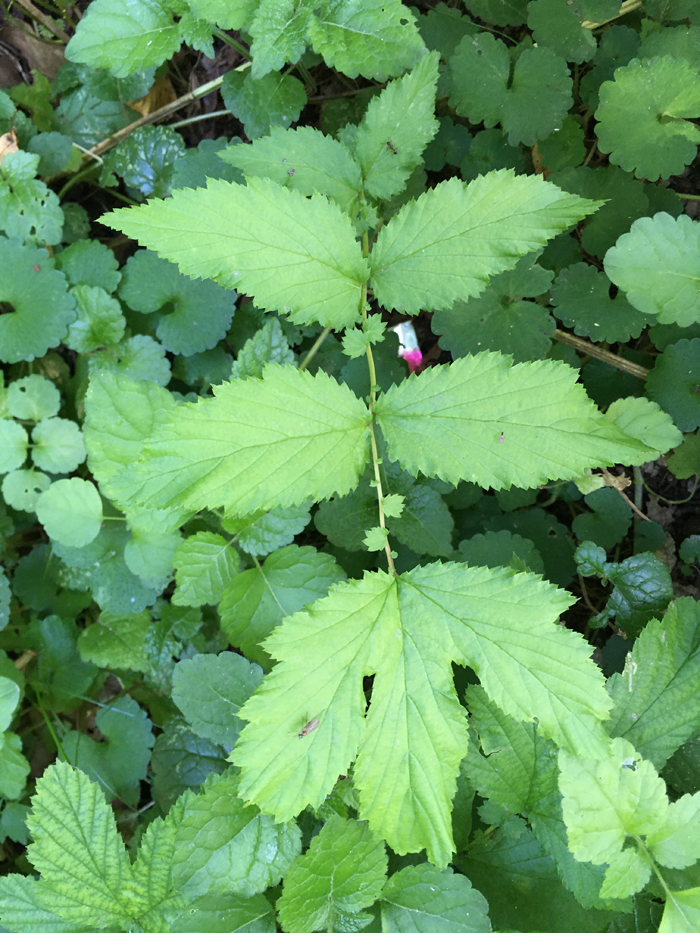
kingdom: Plantae
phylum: Tracheophyta
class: Magnoliopsida
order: Rosales
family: Rosaceae
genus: Filipendula
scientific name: Filipendula ulmaria
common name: Meadowsweet
